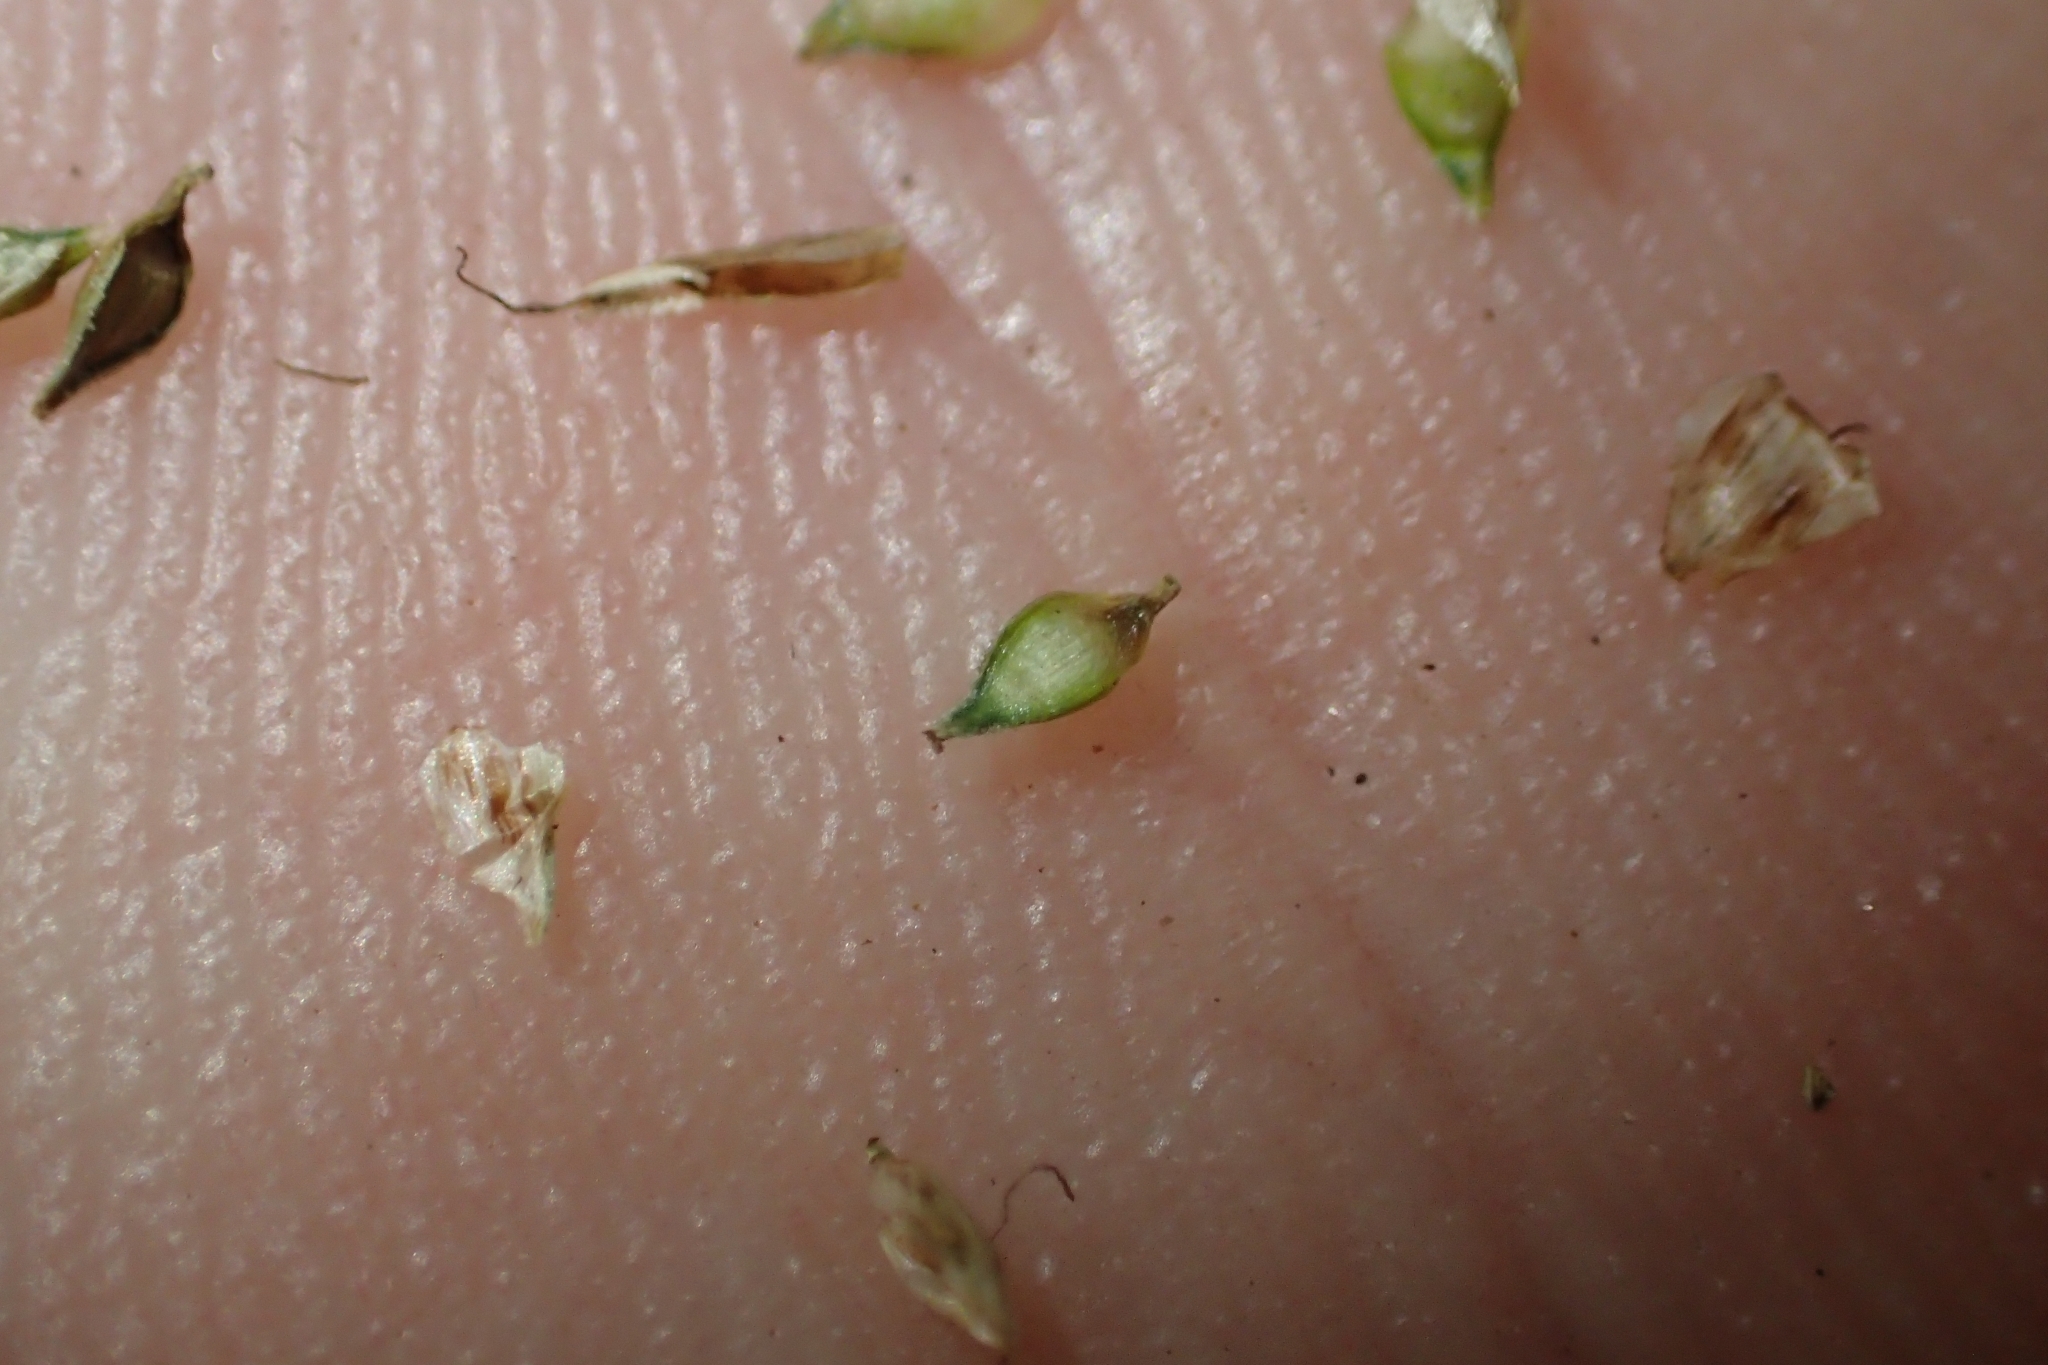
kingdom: Plantae
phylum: Tracheophyta
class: Liliopsida
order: Poales
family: Cyperaceae
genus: Carex
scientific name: Carex secta
